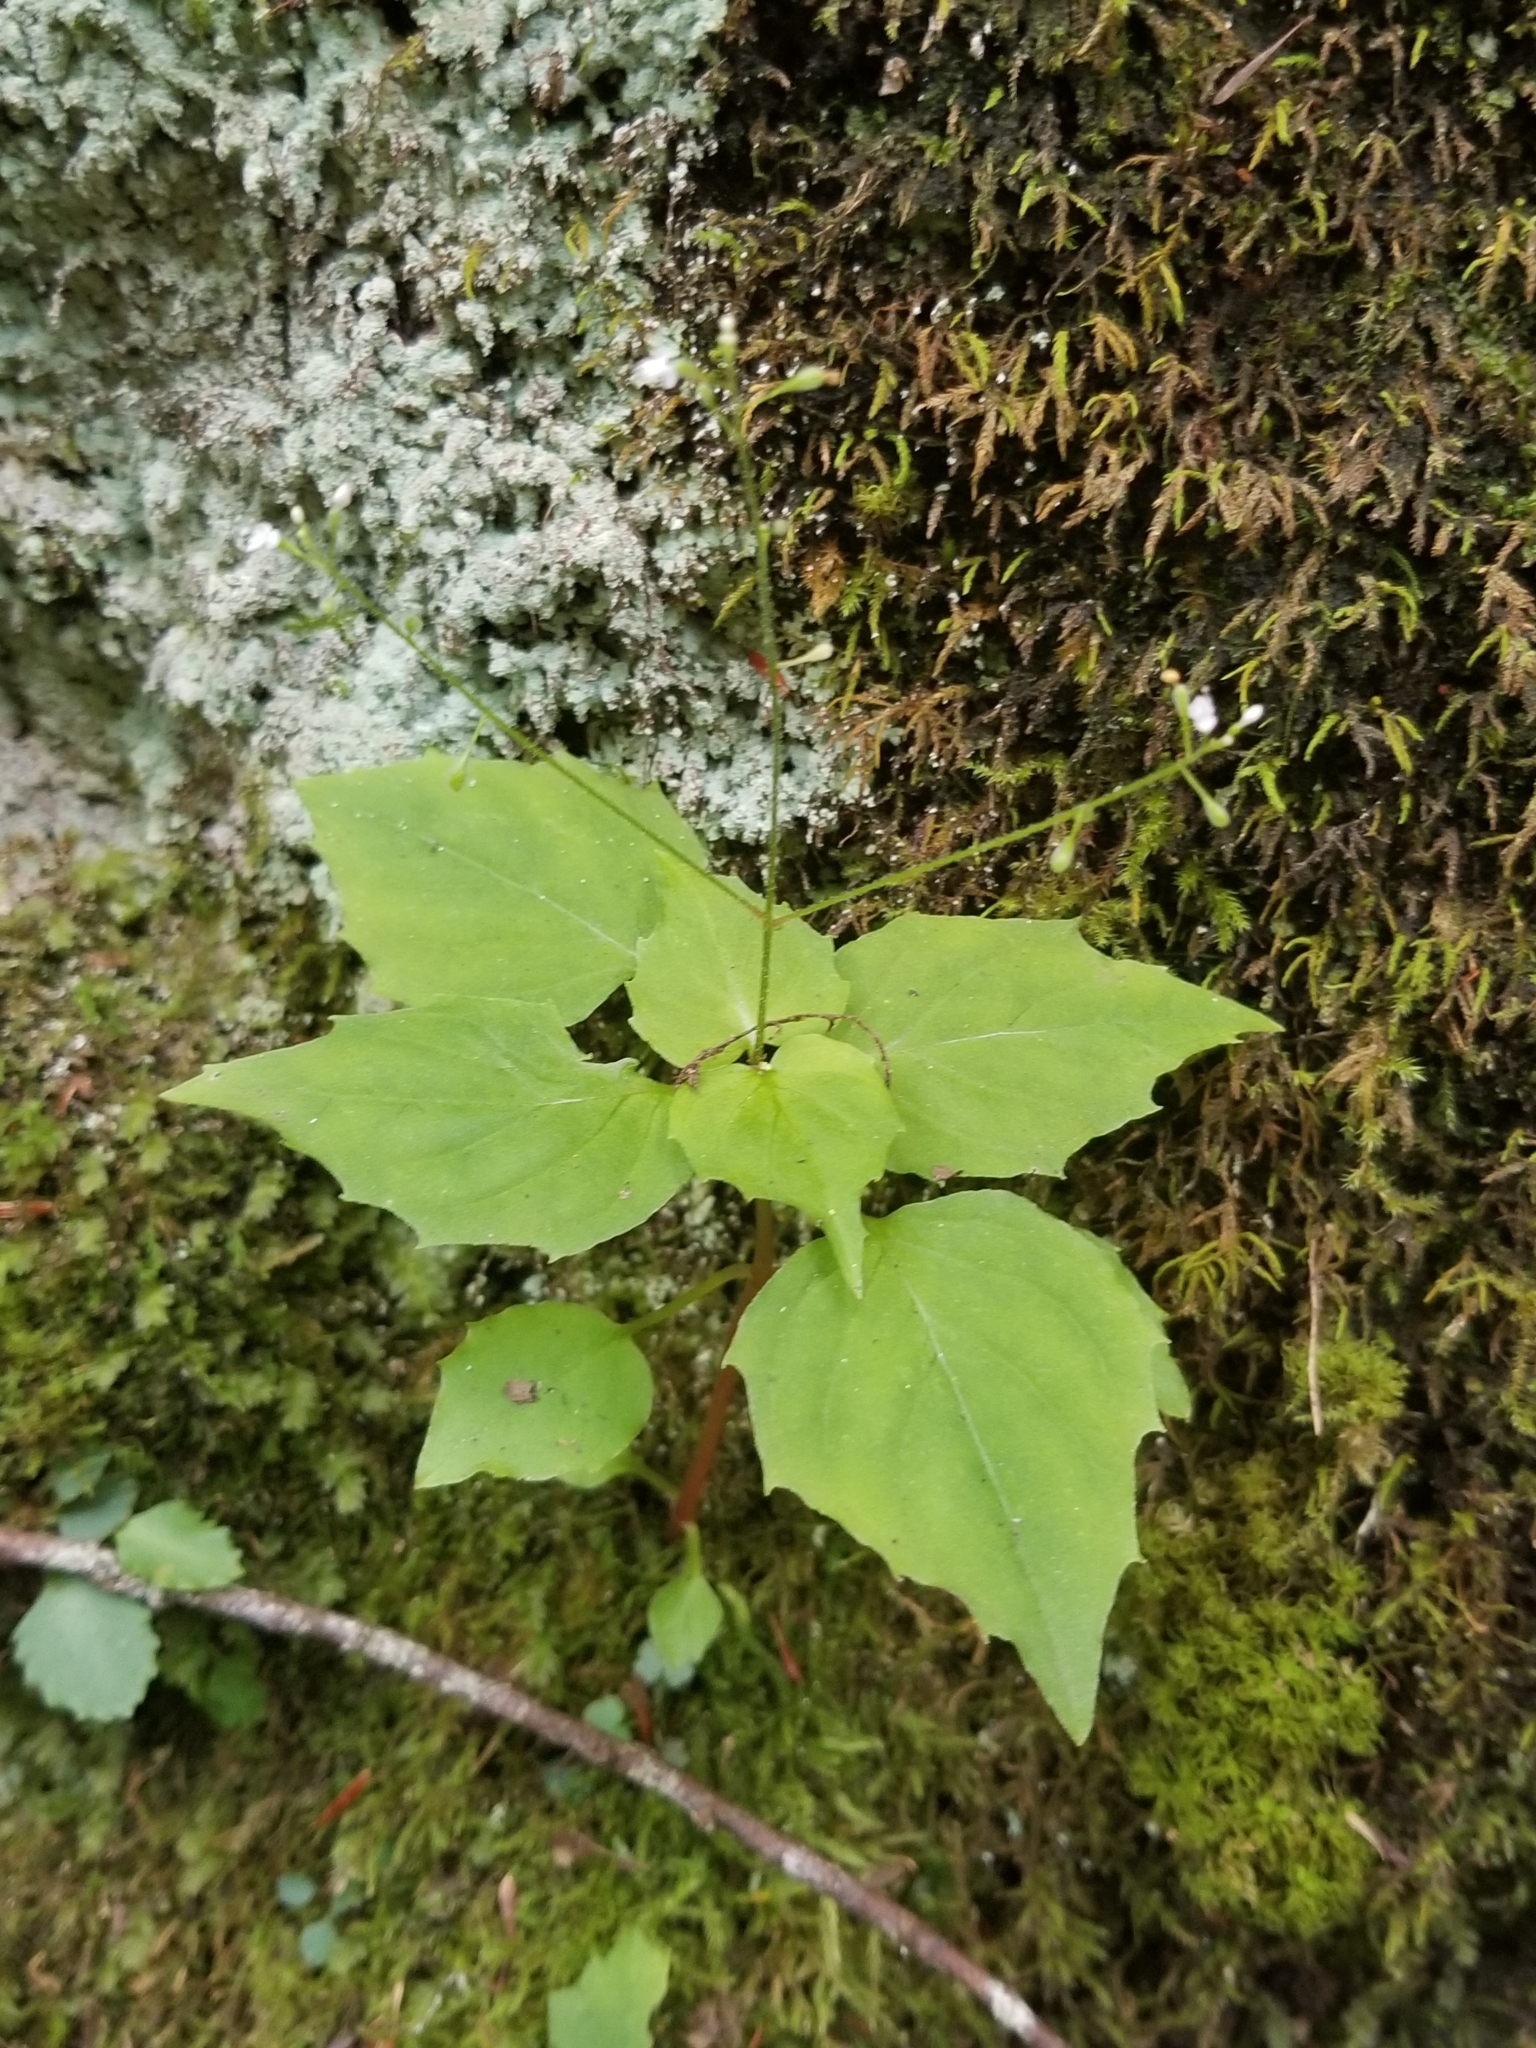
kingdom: Plantae
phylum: Tracheophyta
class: Magnoliopsida
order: Myrtales
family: Onagraceae
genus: Circaea
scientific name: Circaea alpina
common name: Alpine enchanter's-nightshade
